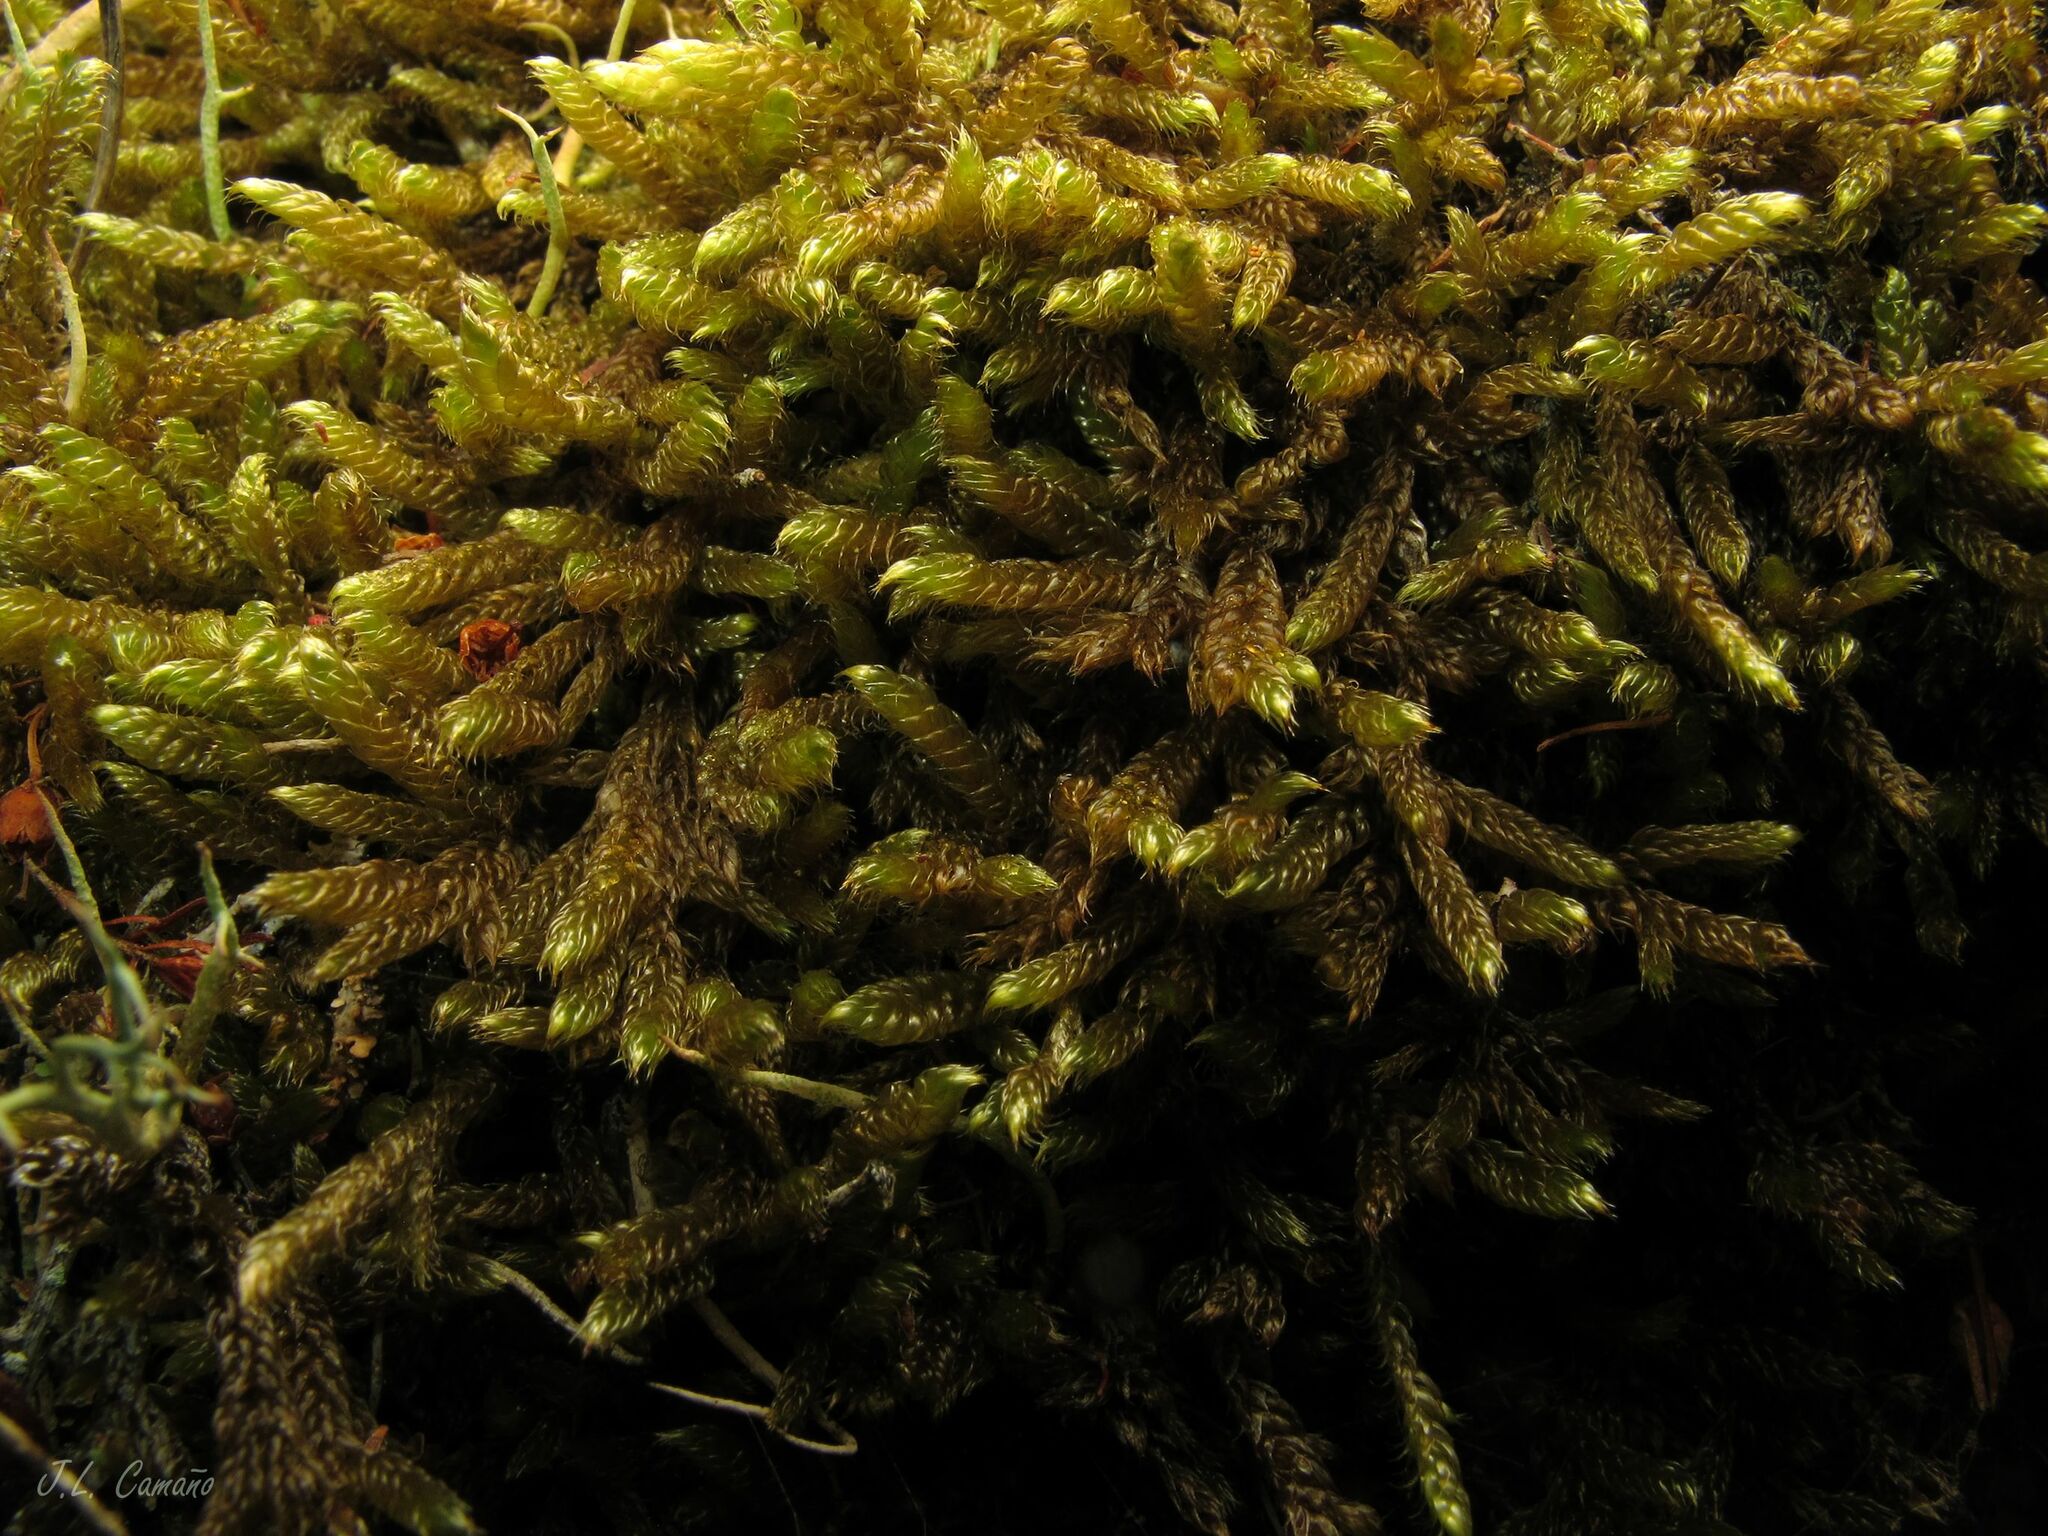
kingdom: Plantae
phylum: Bryophyta
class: Bryopsida
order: Hypnales
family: Hypnaceae
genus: Hypnum
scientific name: Hypnum cupressiforme
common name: Cypress-leaved plait-moss
